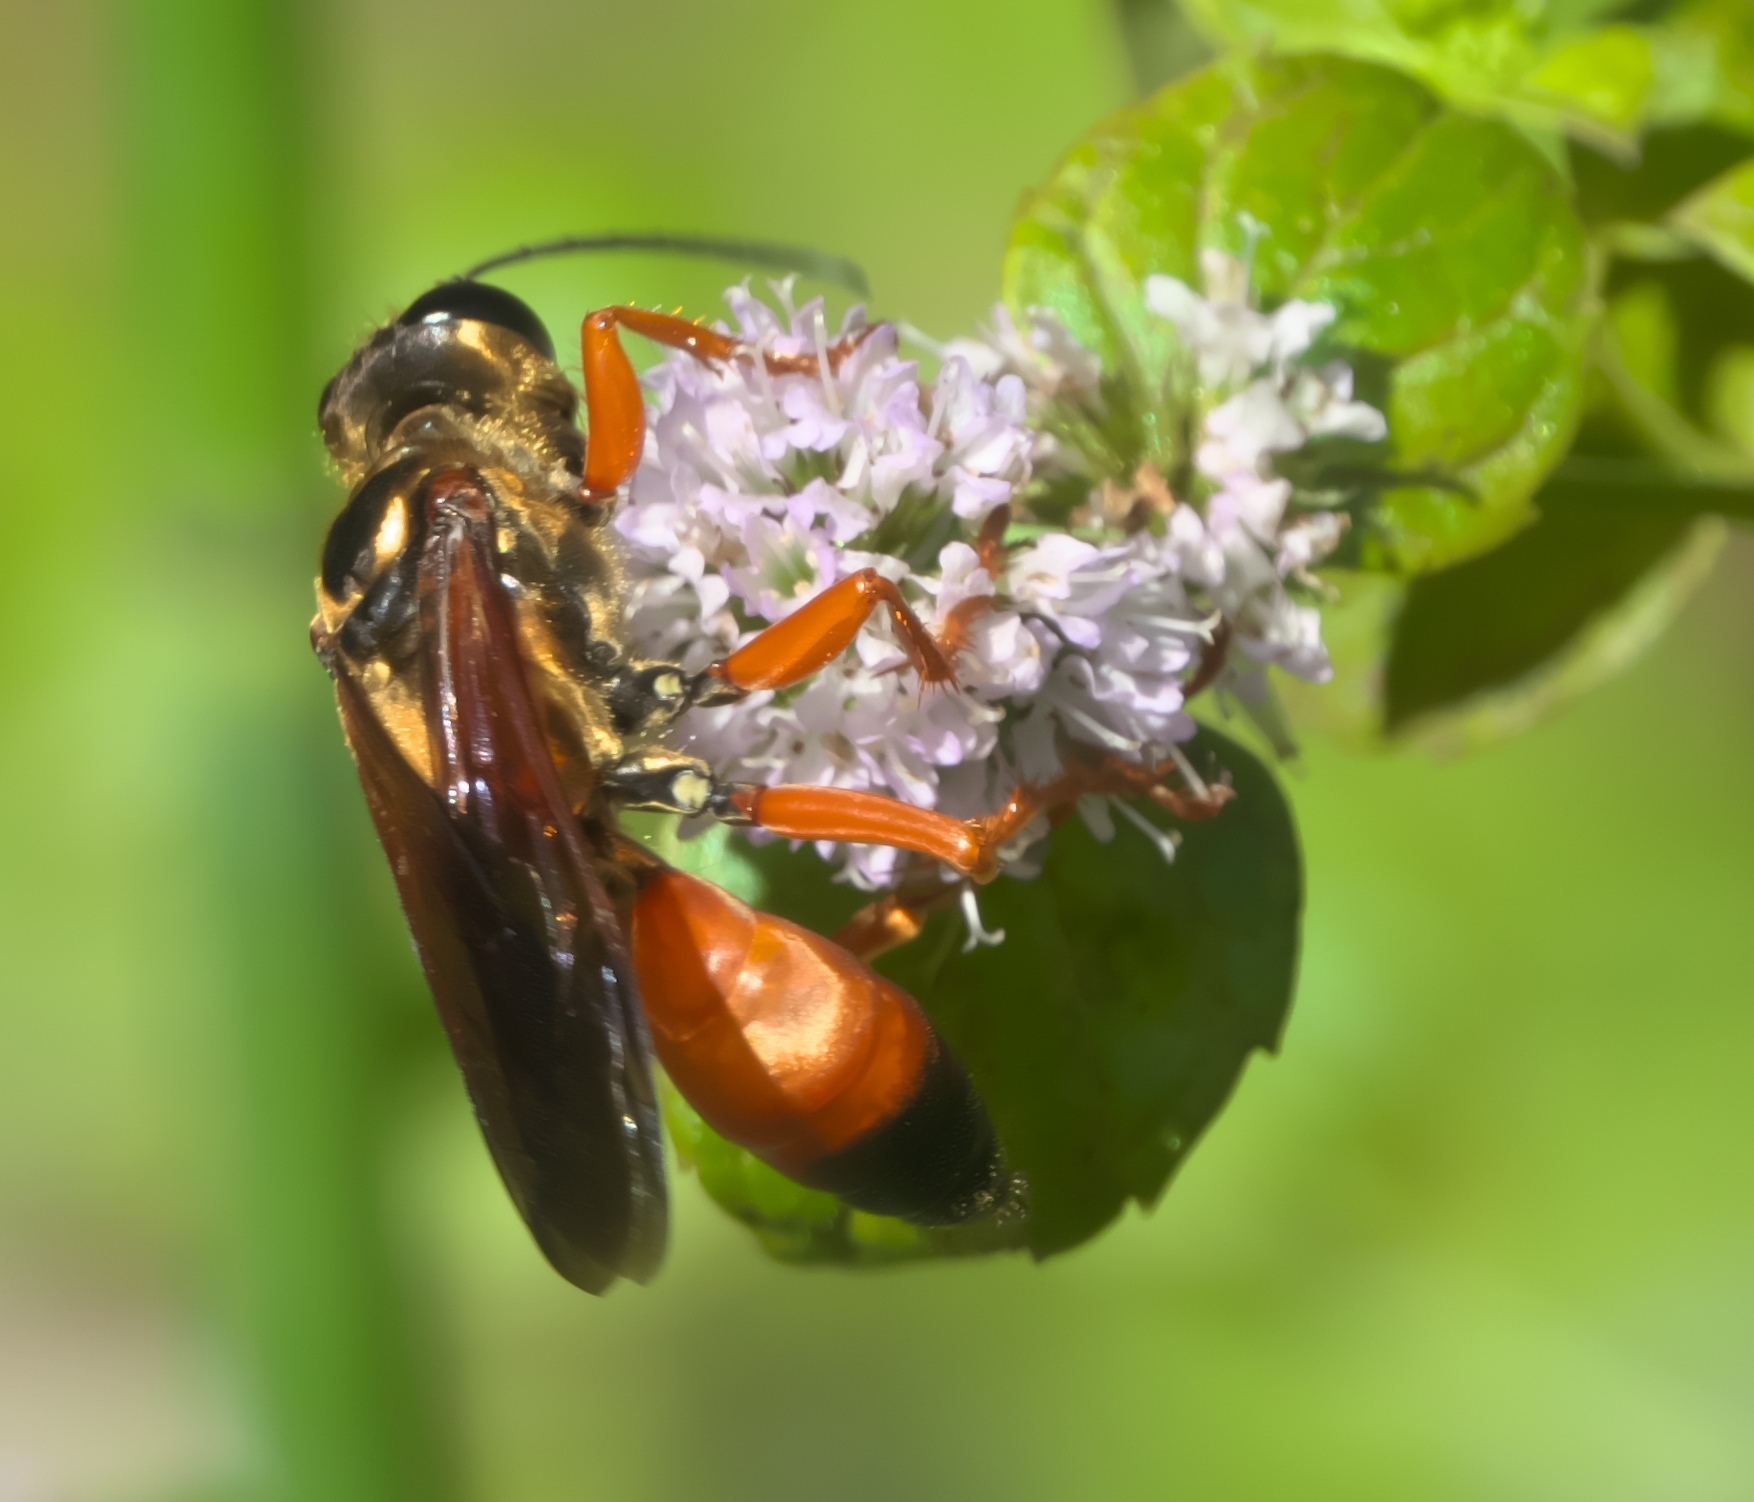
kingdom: Animalia
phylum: Arthropoda
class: Insecta
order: Hymenoptera
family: Sphecidae
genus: Sphex
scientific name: Sphex ichneumoneus
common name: Great golden digger wasp
